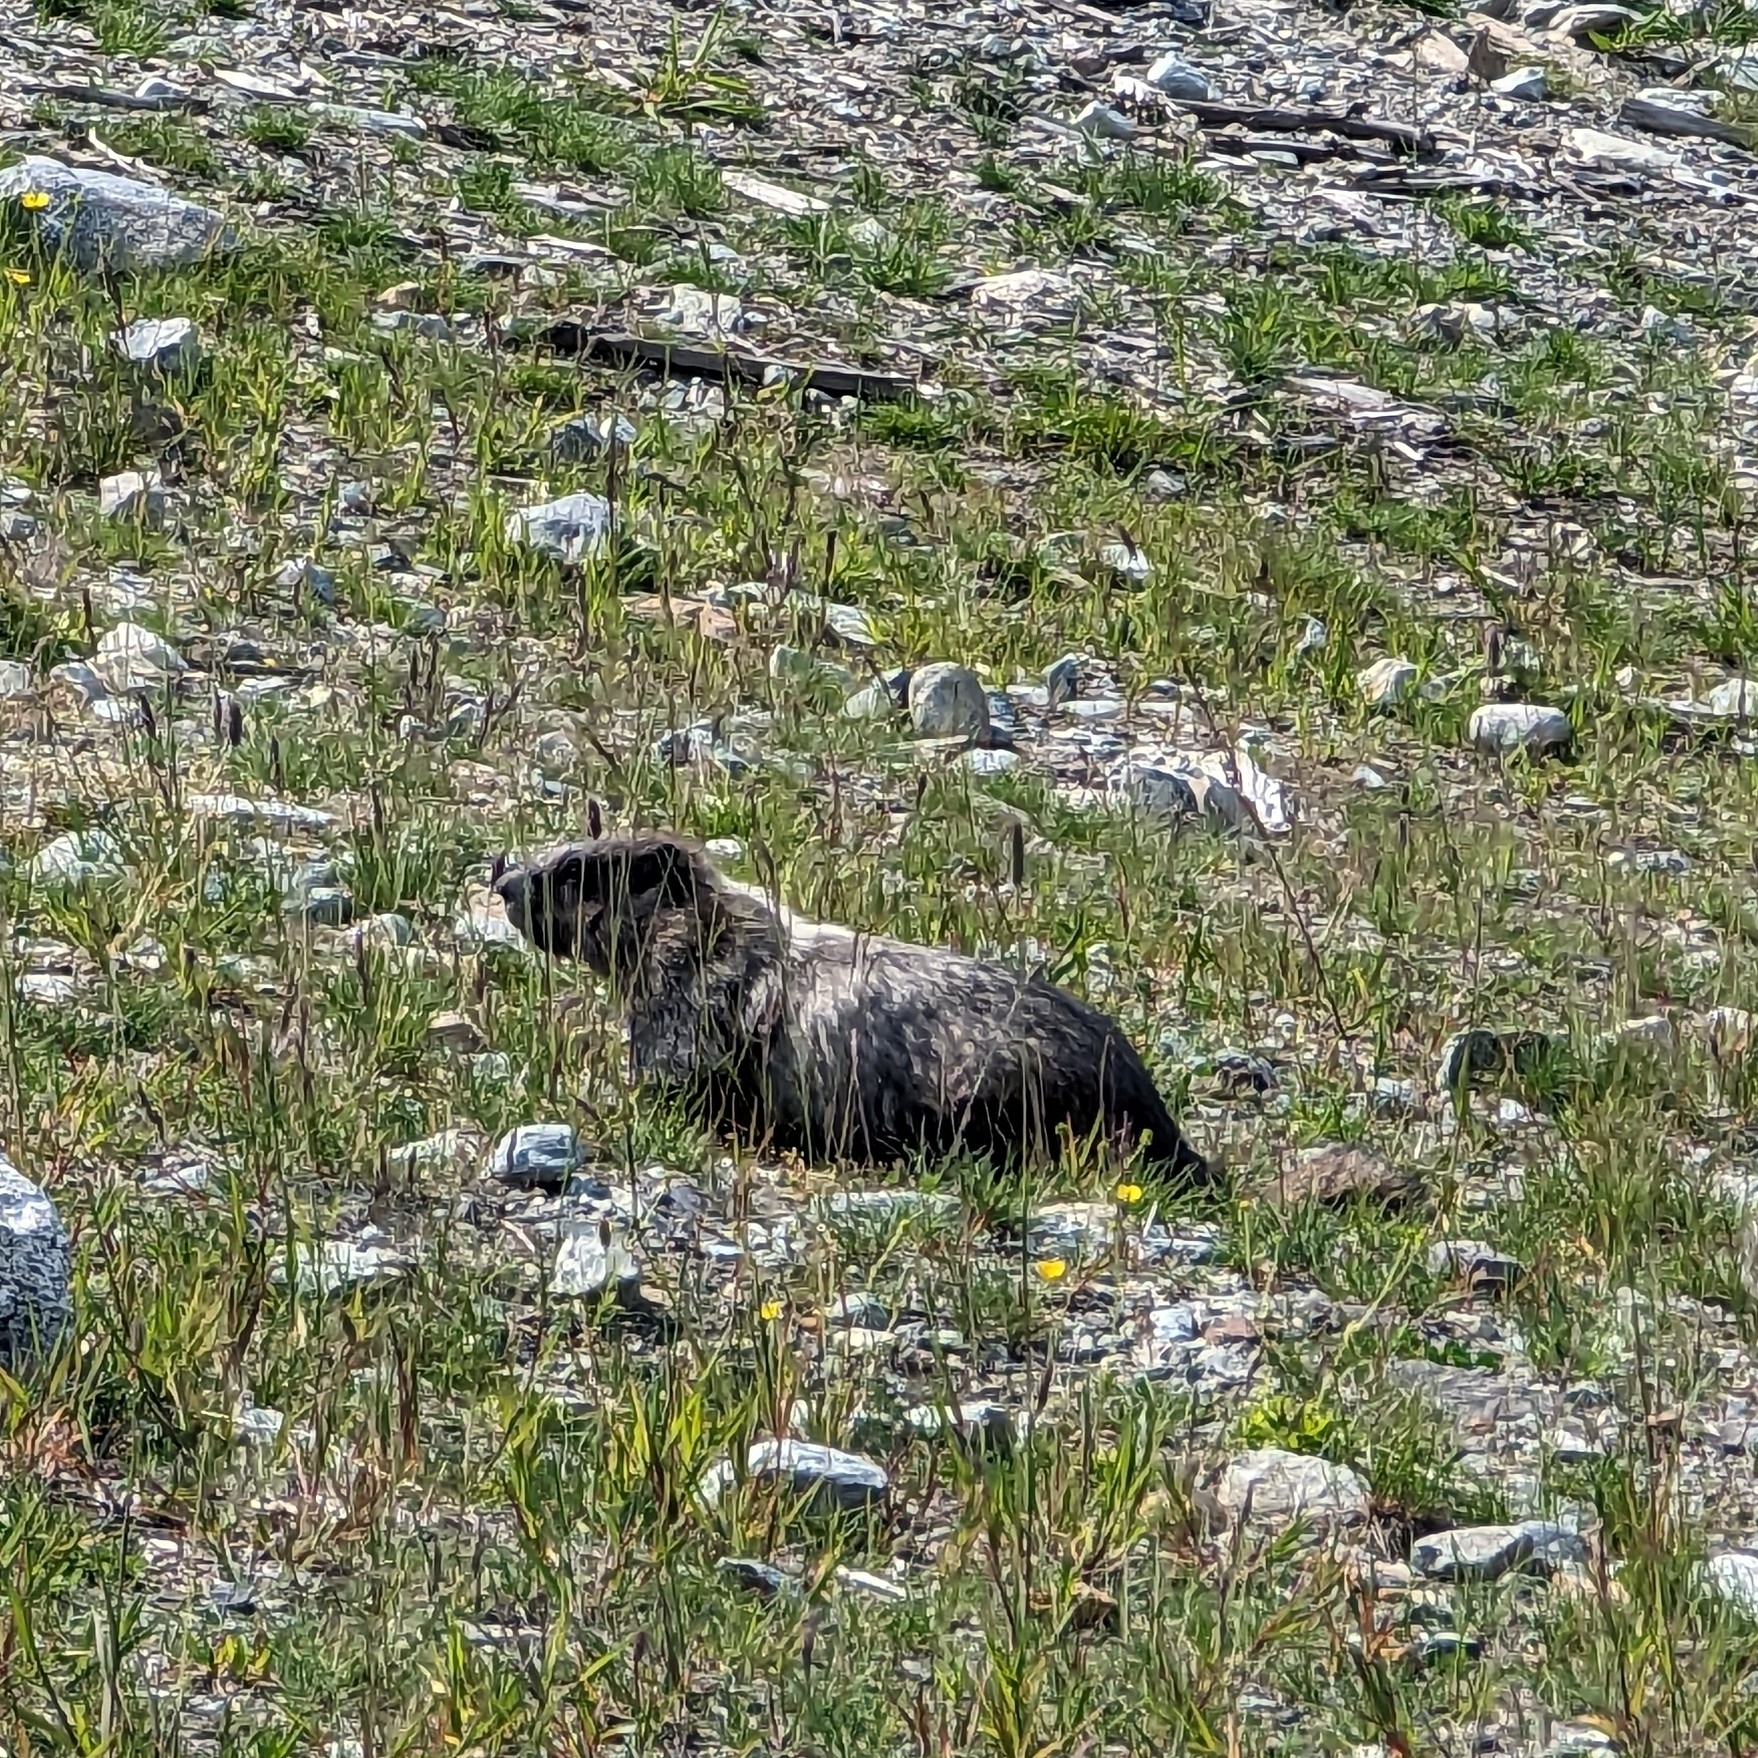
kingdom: Animalia
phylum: Chordata
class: Mammalia
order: Rodentia
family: Sciuridae
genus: Marmota
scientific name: Marmota caligata
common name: Hoary marmot
